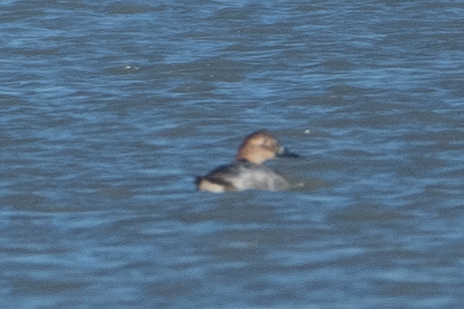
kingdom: Animalia
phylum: Chordata
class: Aves
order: Anseriformes
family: Anatidae
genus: Aythya
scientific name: Aythya valisineria
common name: Canvasback
